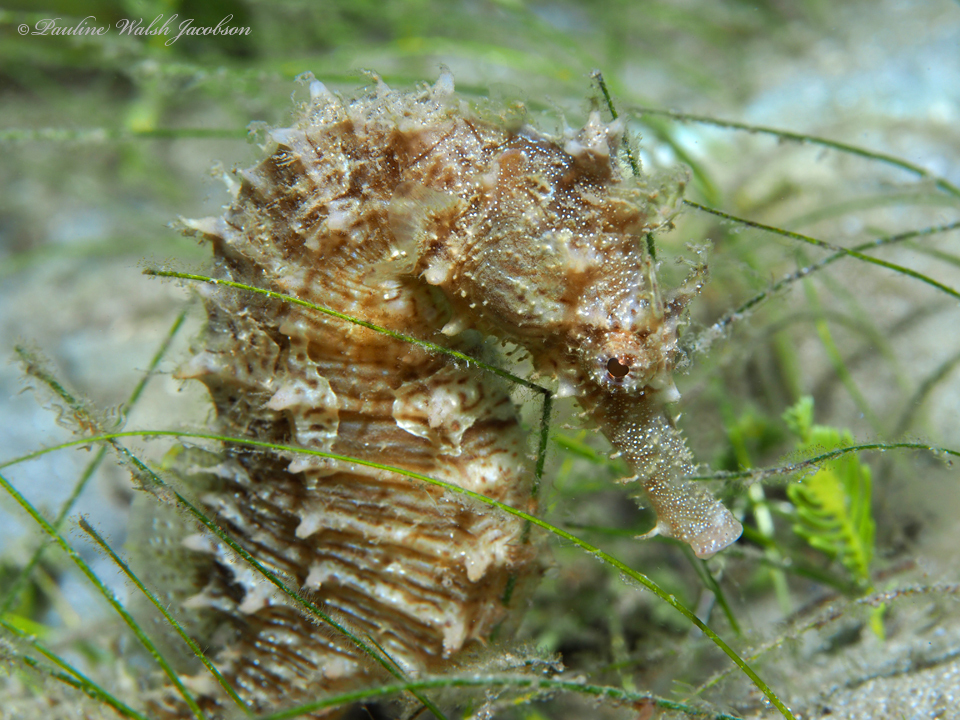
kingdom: Animalia
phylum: Chordata
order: Syngnathiformes
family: Syngnathidae
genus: Hippocampus
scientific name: Hippocampus erectus
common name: Lined seahorse
